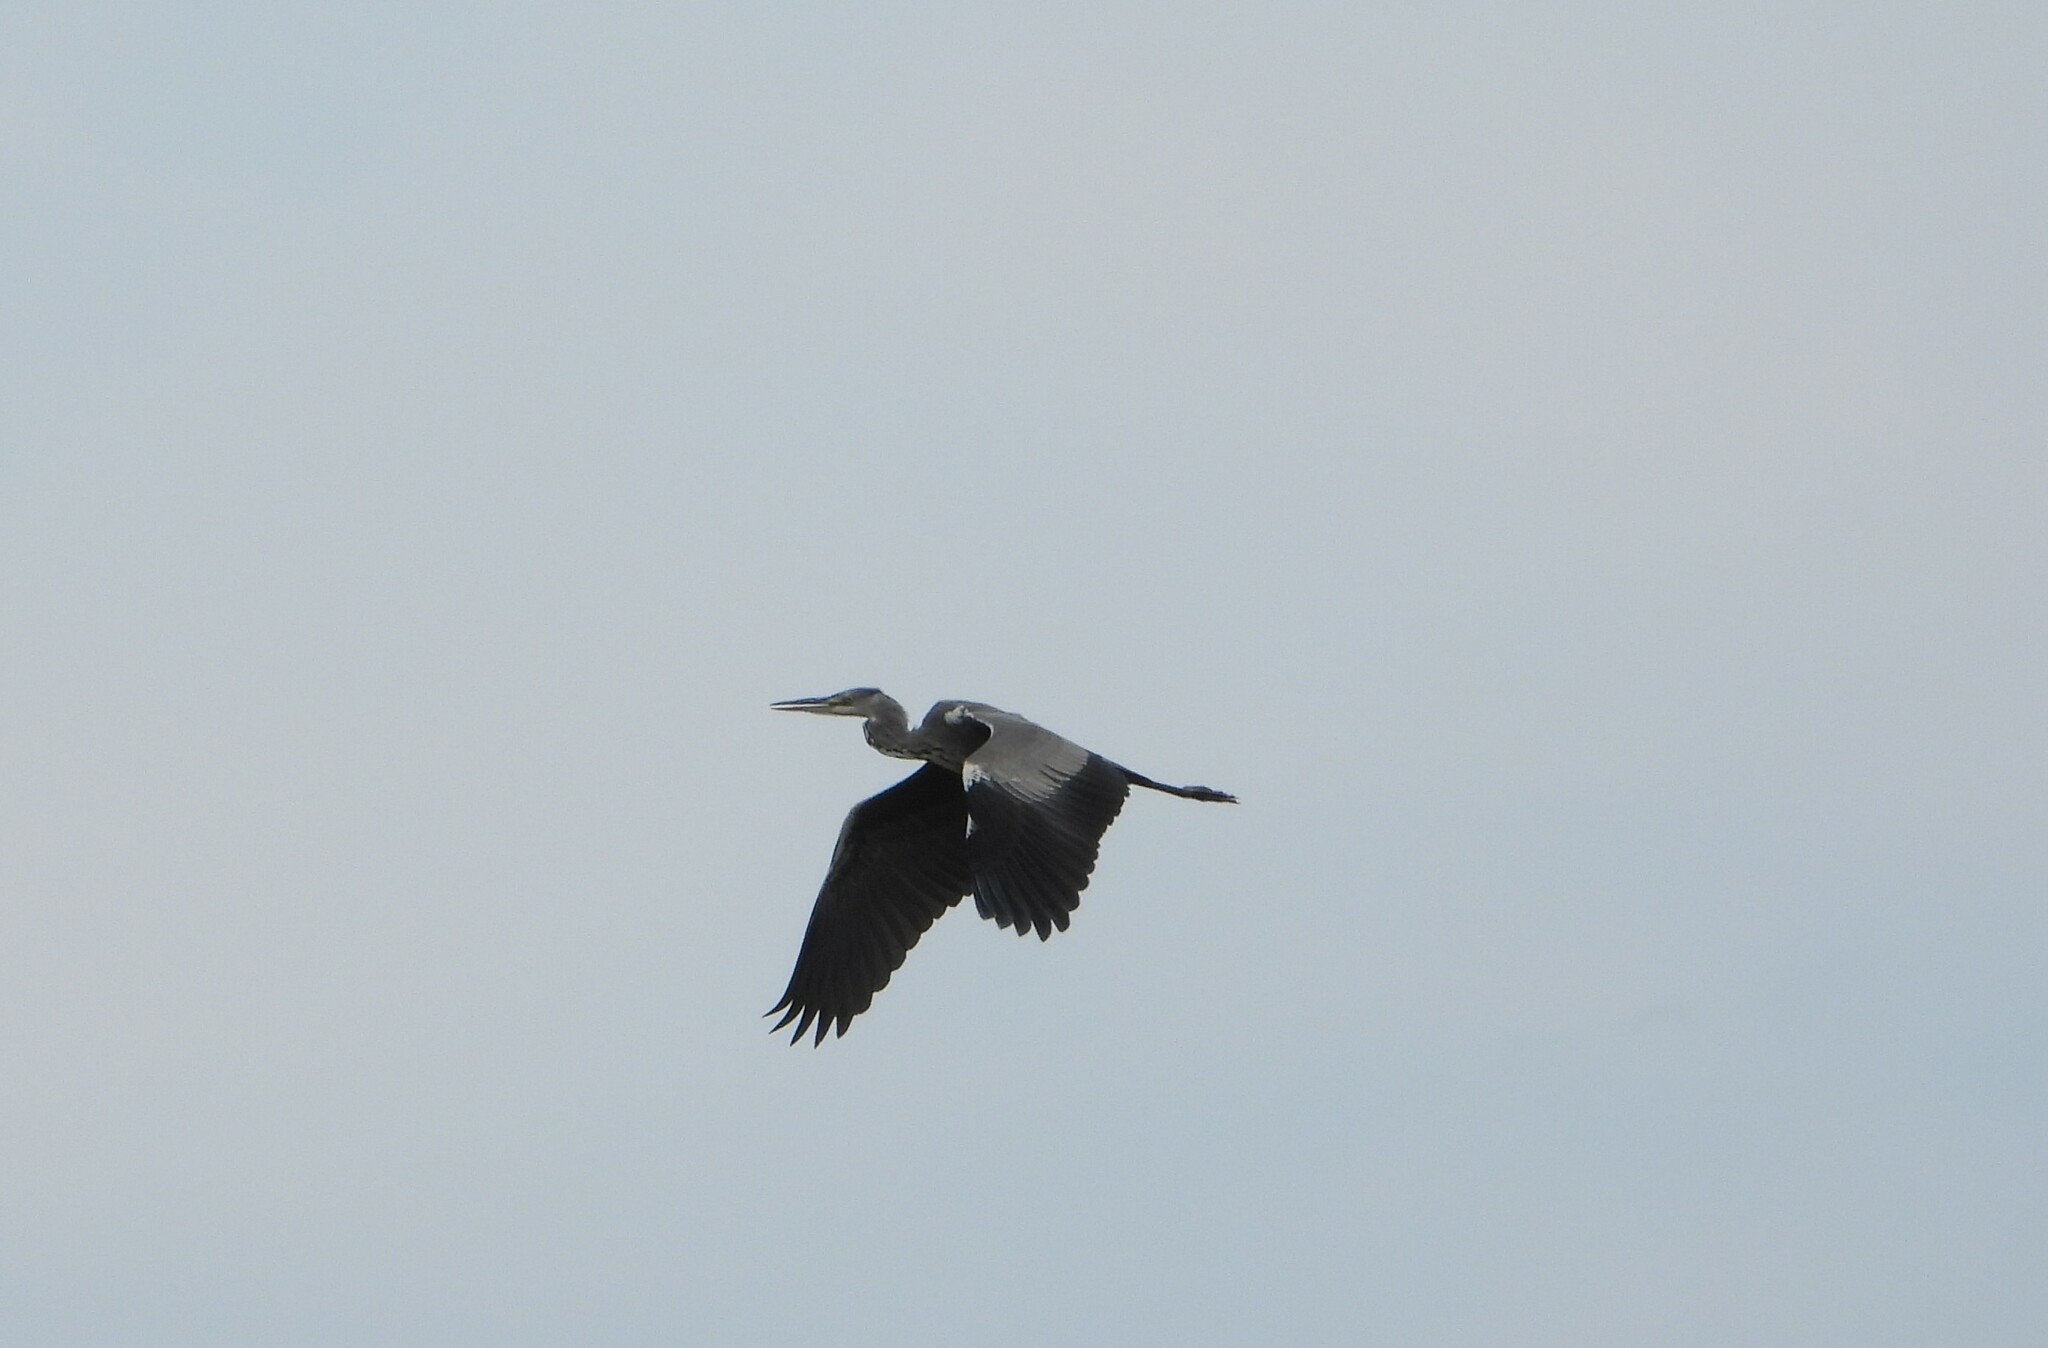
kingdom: Animalia
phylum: Chordata
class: Aves
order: Pelecaniformes
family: Ardeidae
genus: Ardea
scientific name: Ardea cinerea
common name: Grey heron
